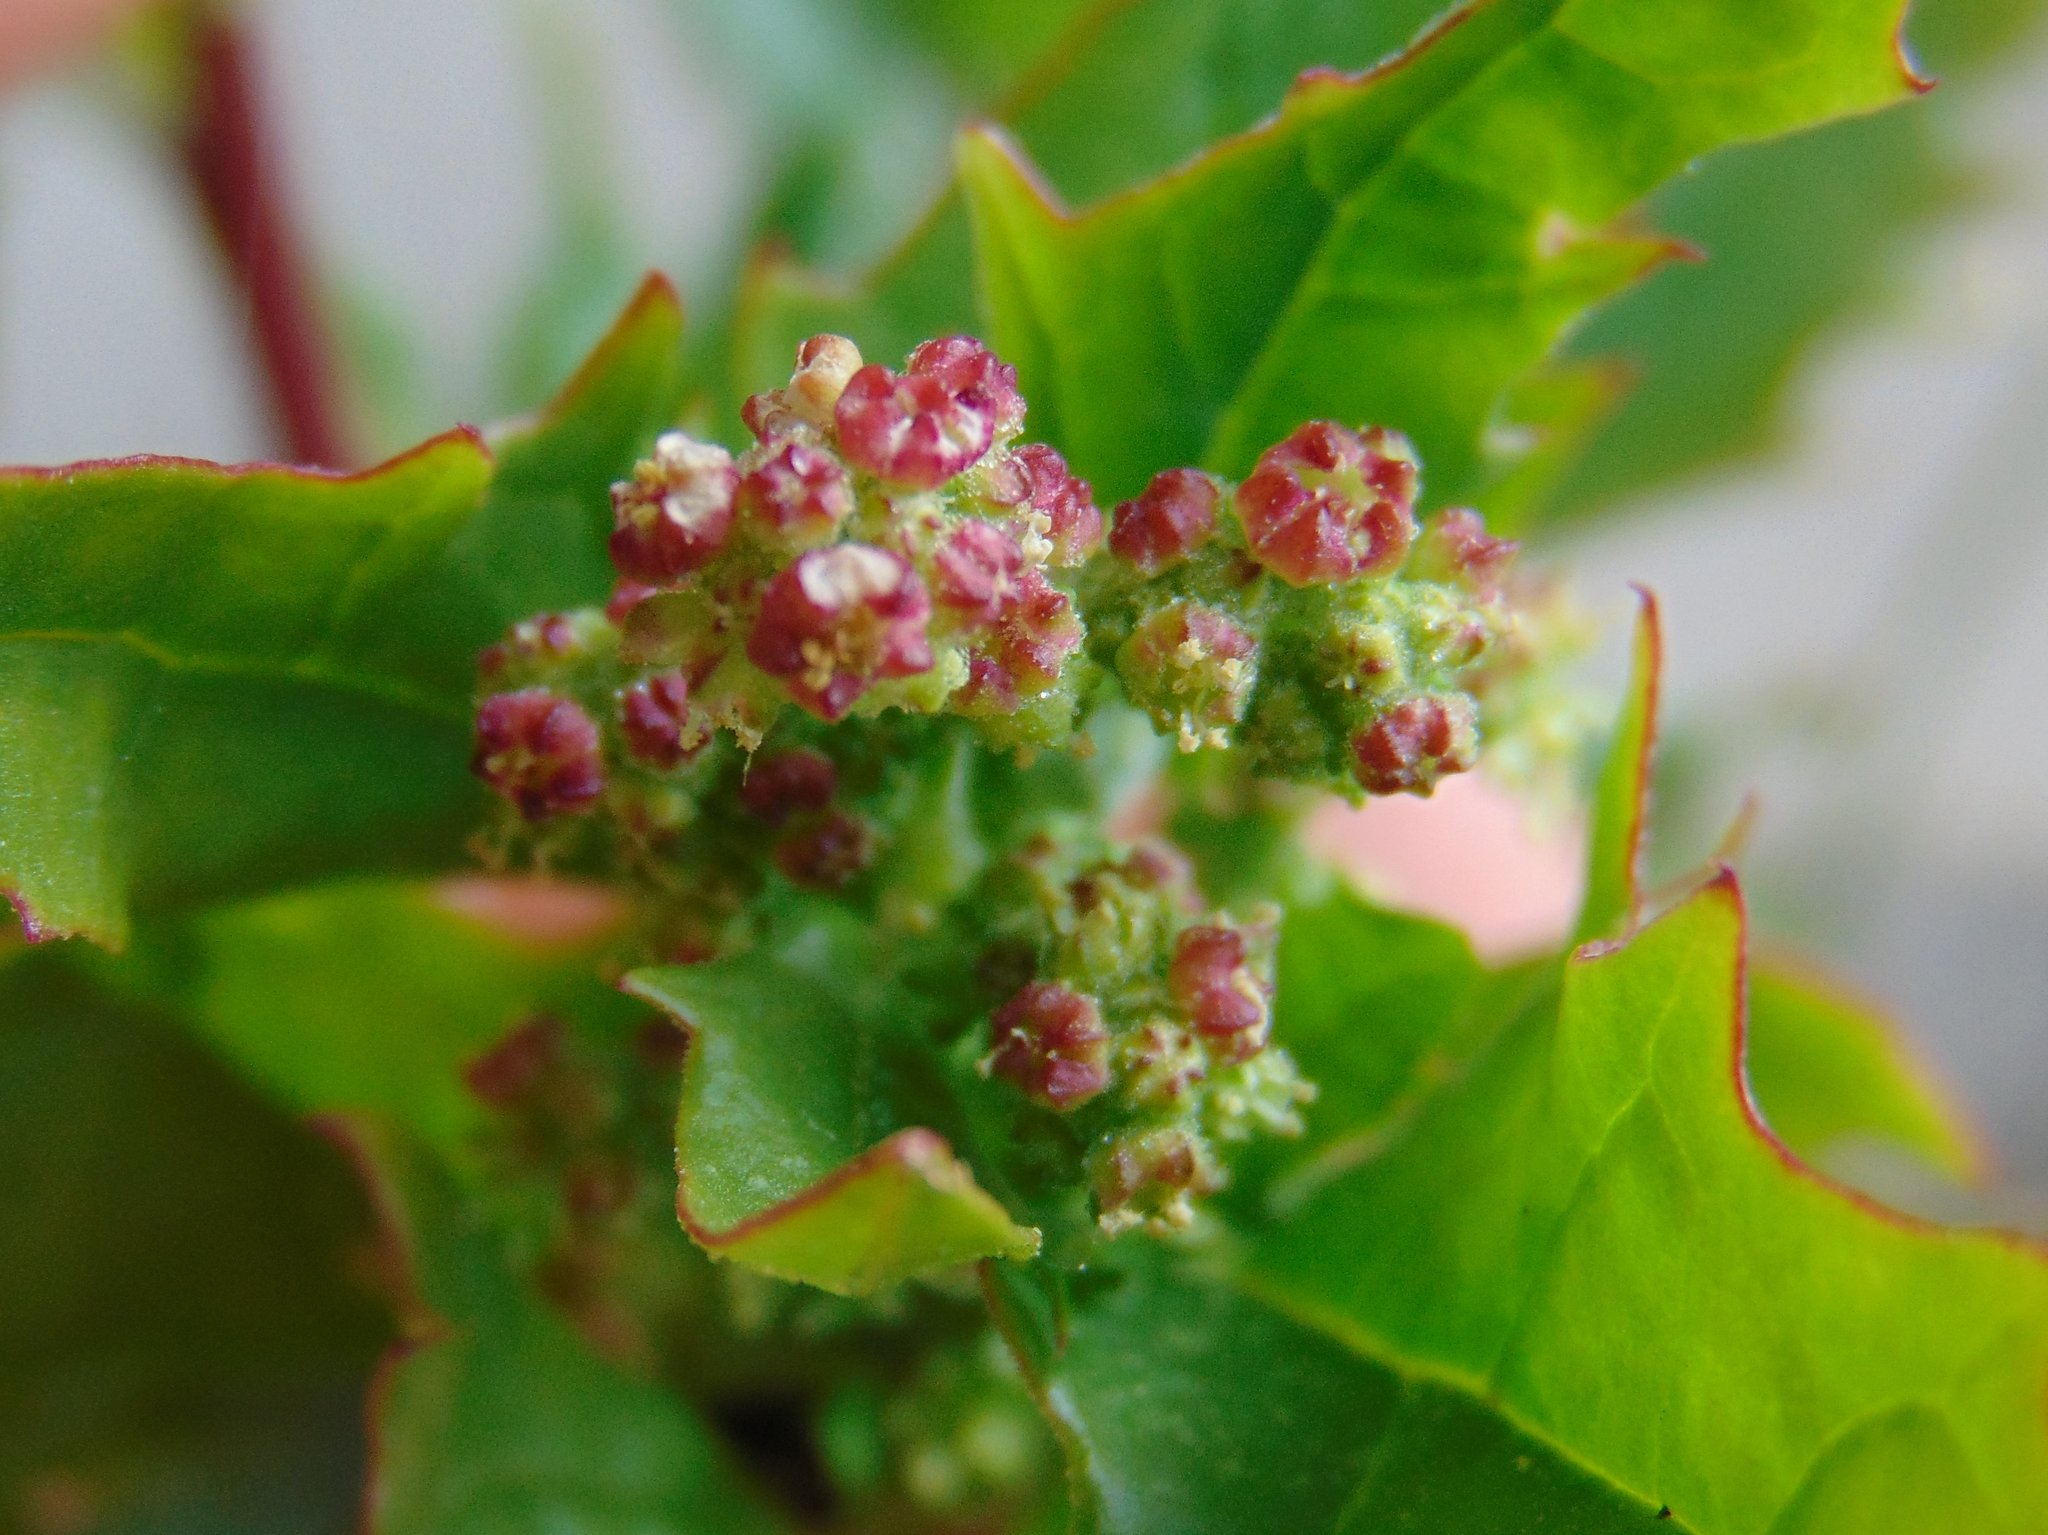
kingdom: Plantae
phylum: Tracheophyta
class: Magnoliopsida
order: Caryophyllales
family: Amaranthaceae
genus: Chenopodiastrum
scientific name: Chenopodiastrum murale
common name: Sowbane
